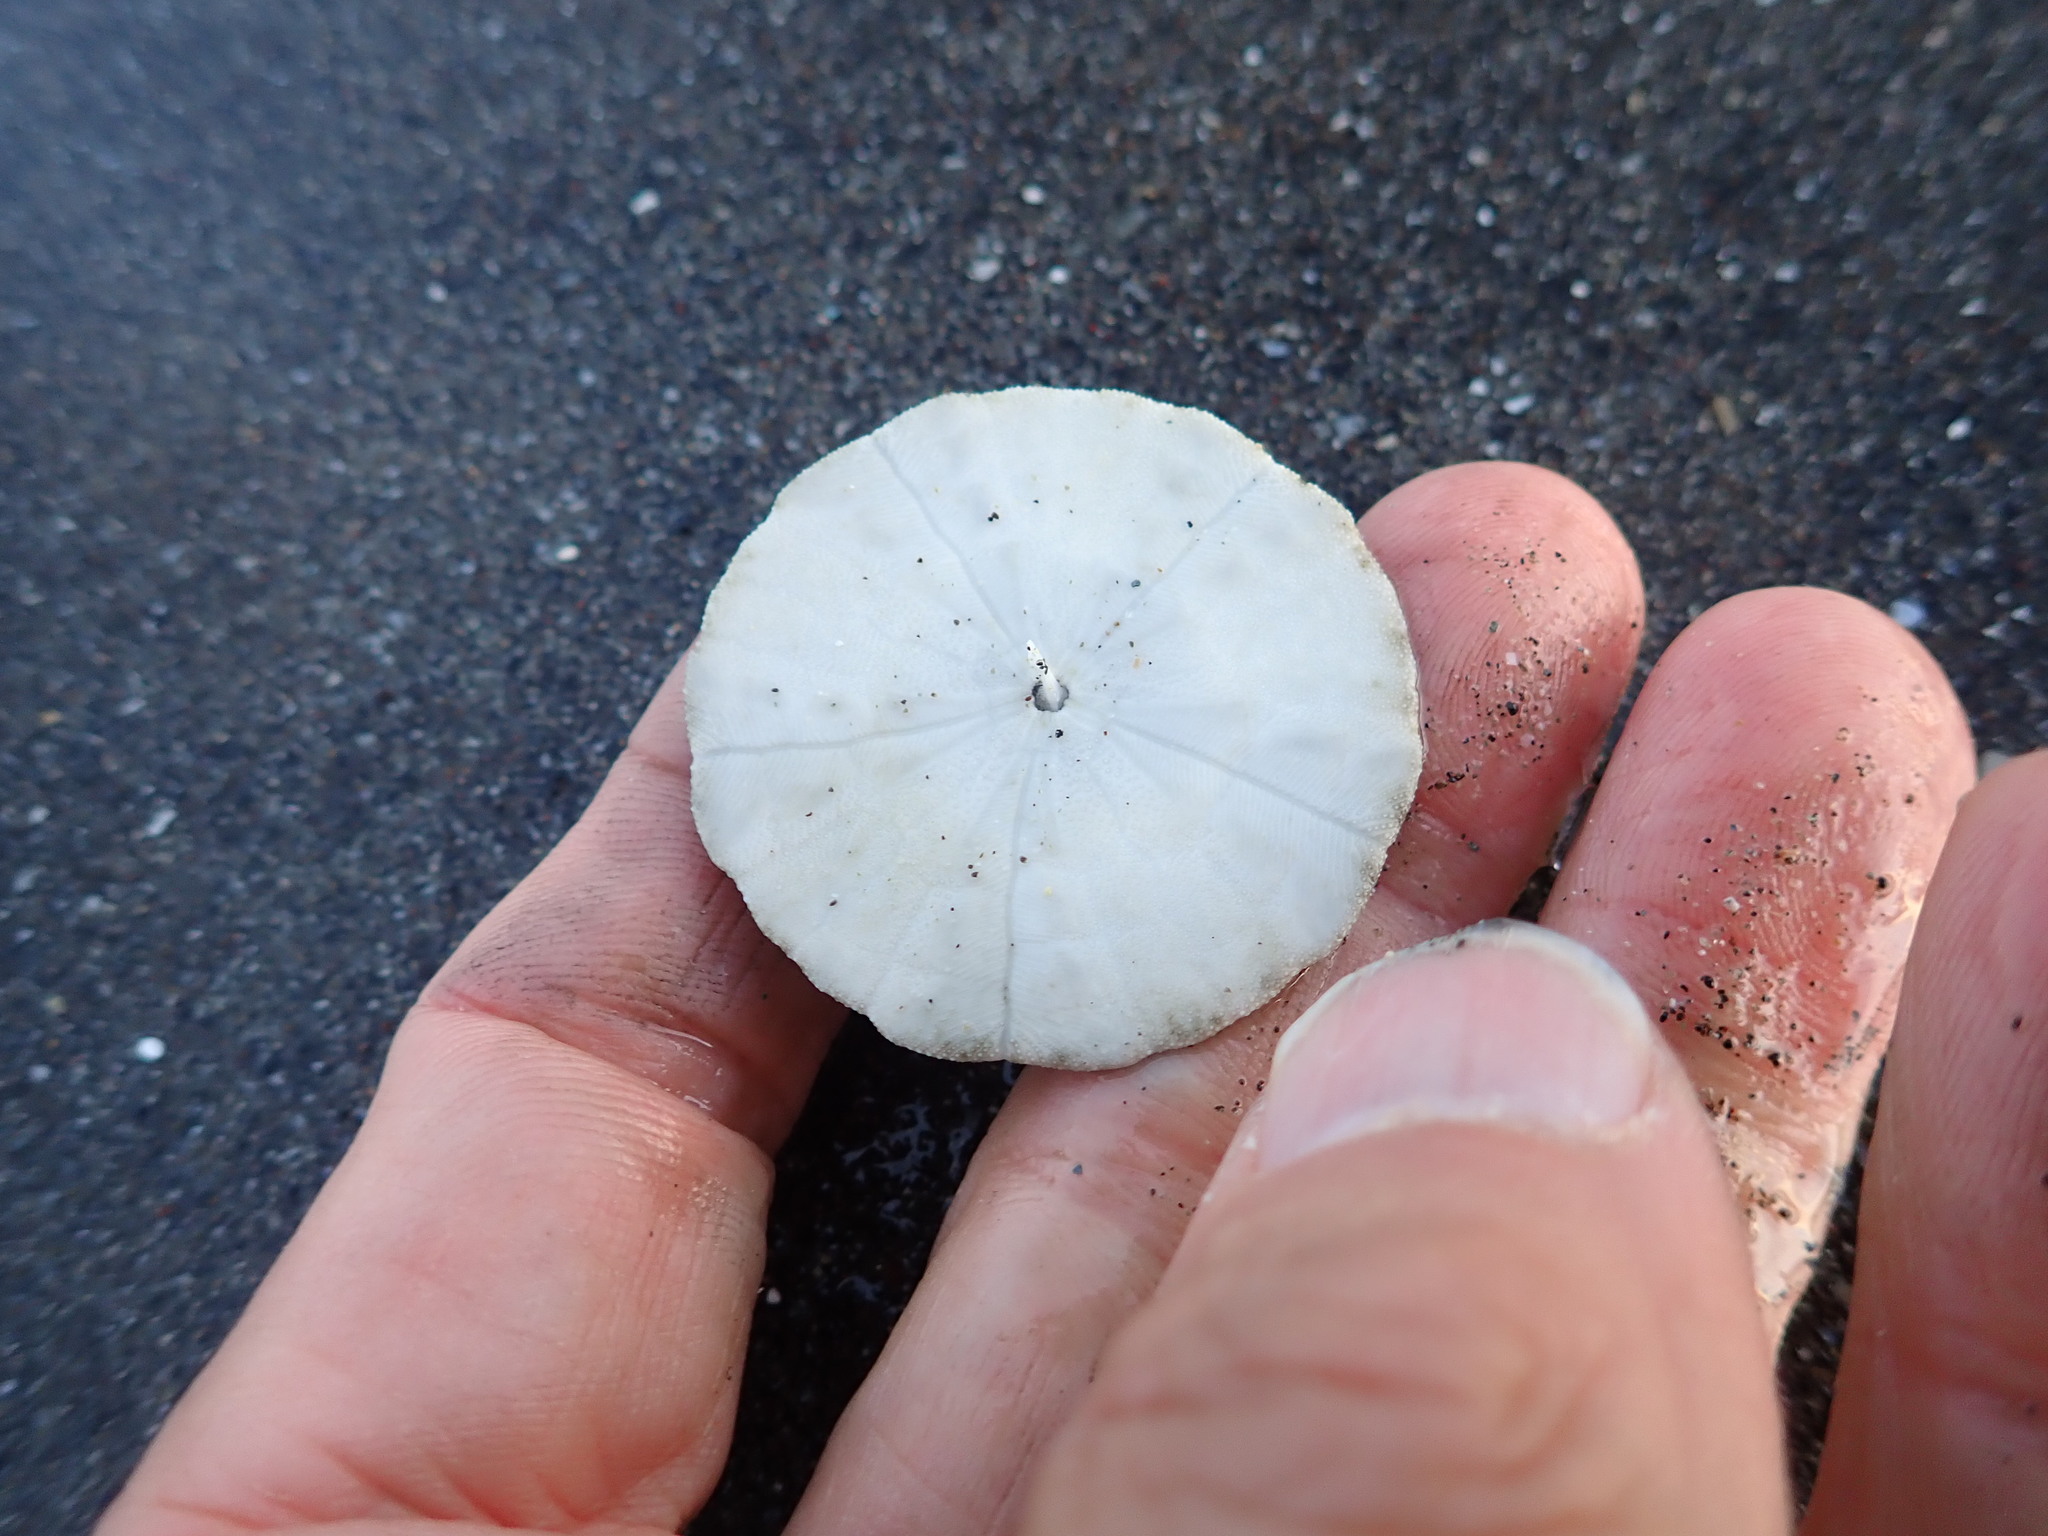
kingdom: Animalia
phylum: Echinodermata
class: Echinoidea
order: Clypeasteroida
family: Clypeasteridae
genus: Fellaster
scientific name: Fellaster zelandiae
